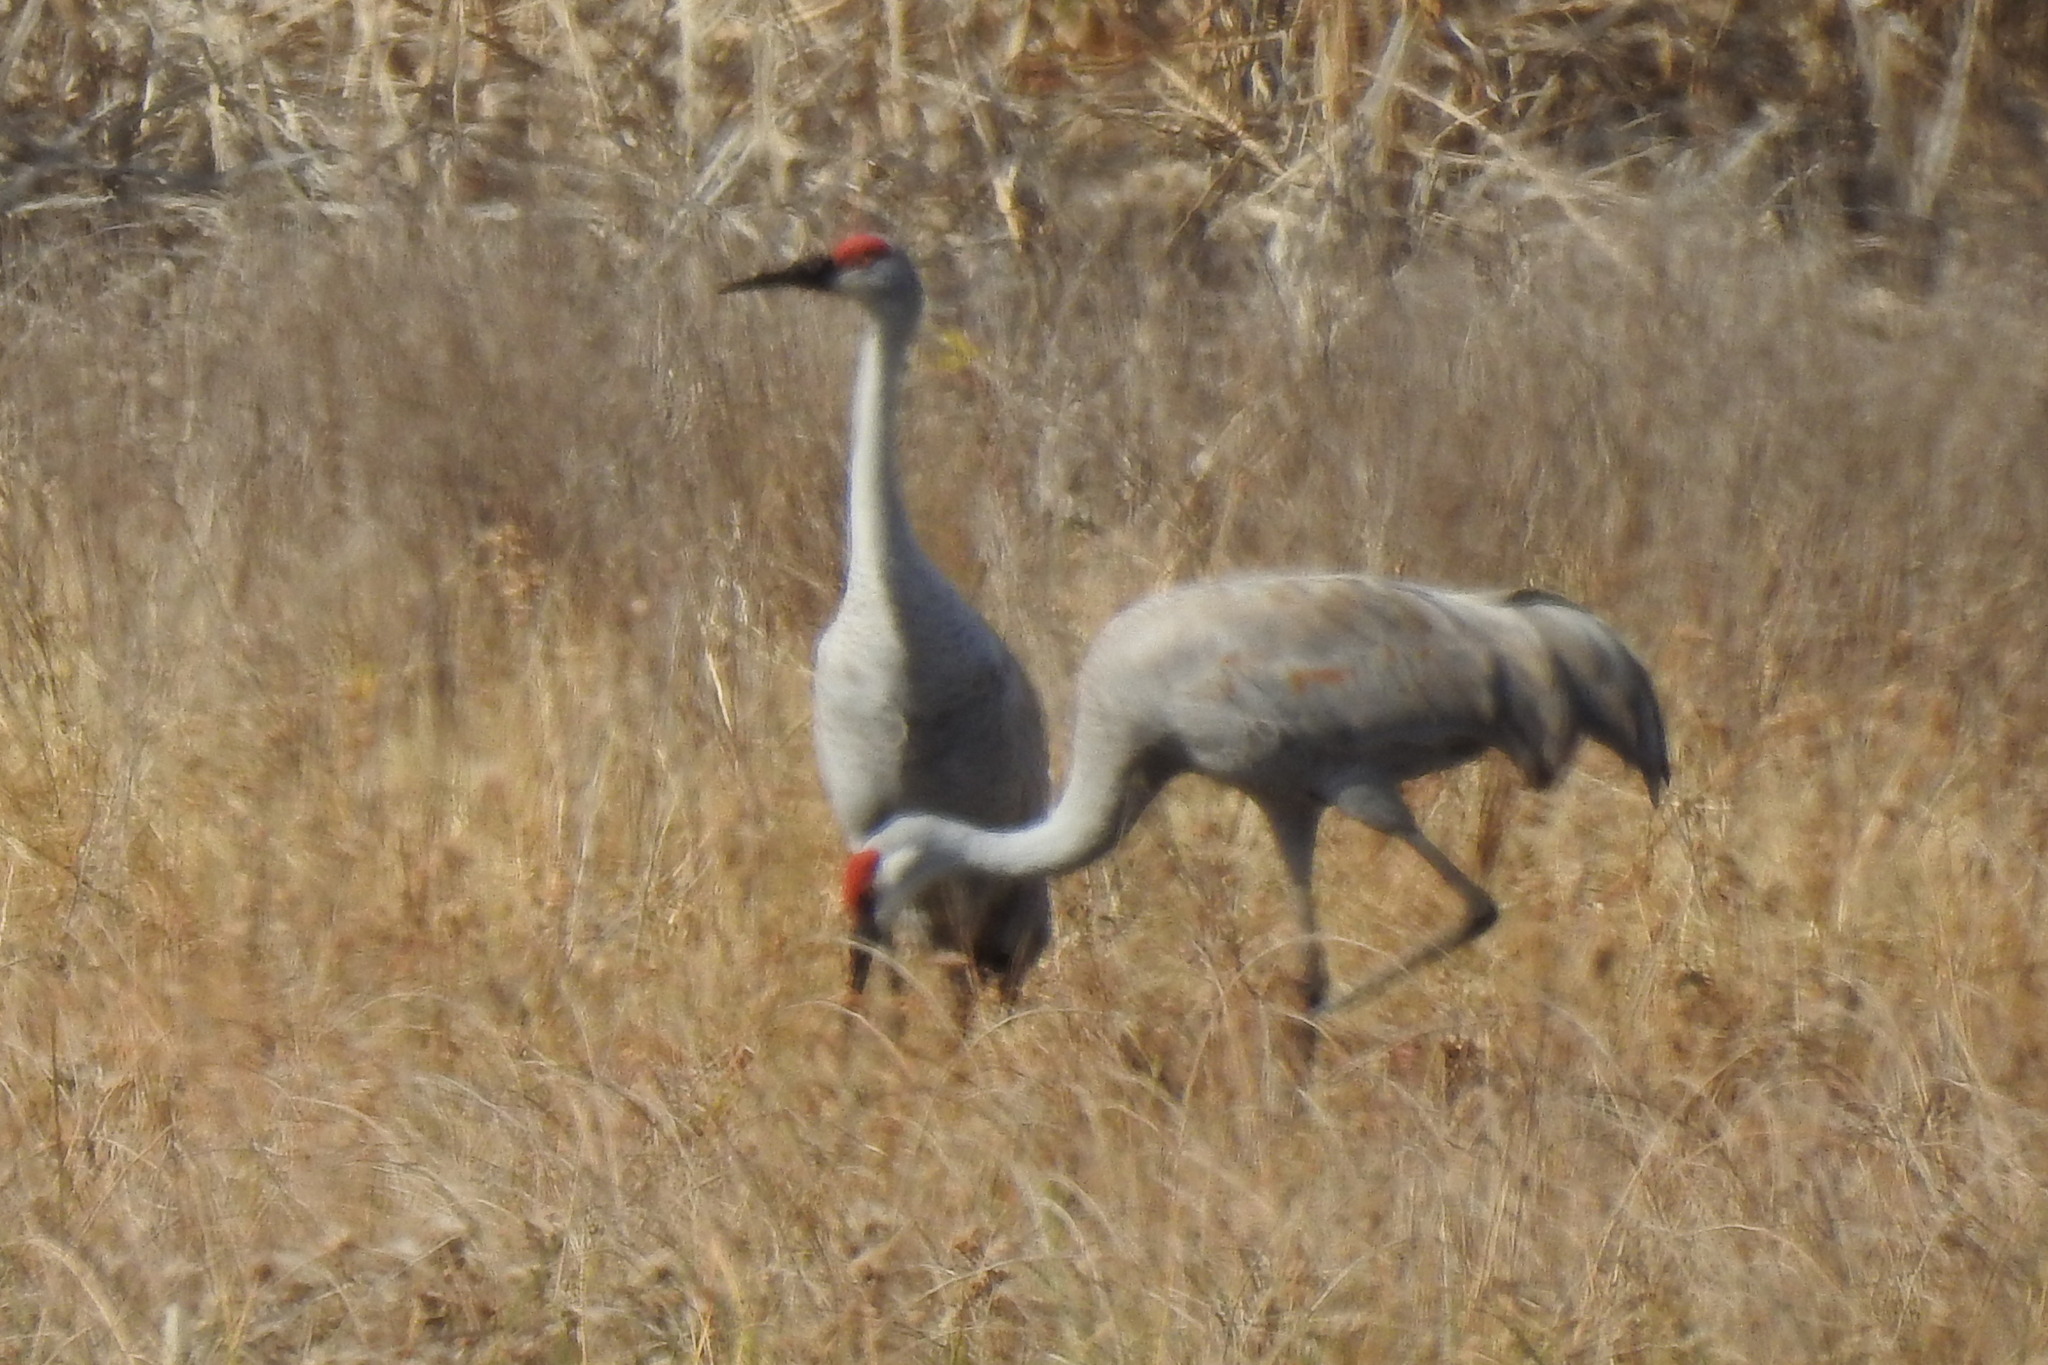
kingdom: Animalia
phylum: Chordata
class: Aves
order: Gruiformes
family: Gruidae
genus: Grus
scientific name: Grus canadensis
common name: Sandhill crane
